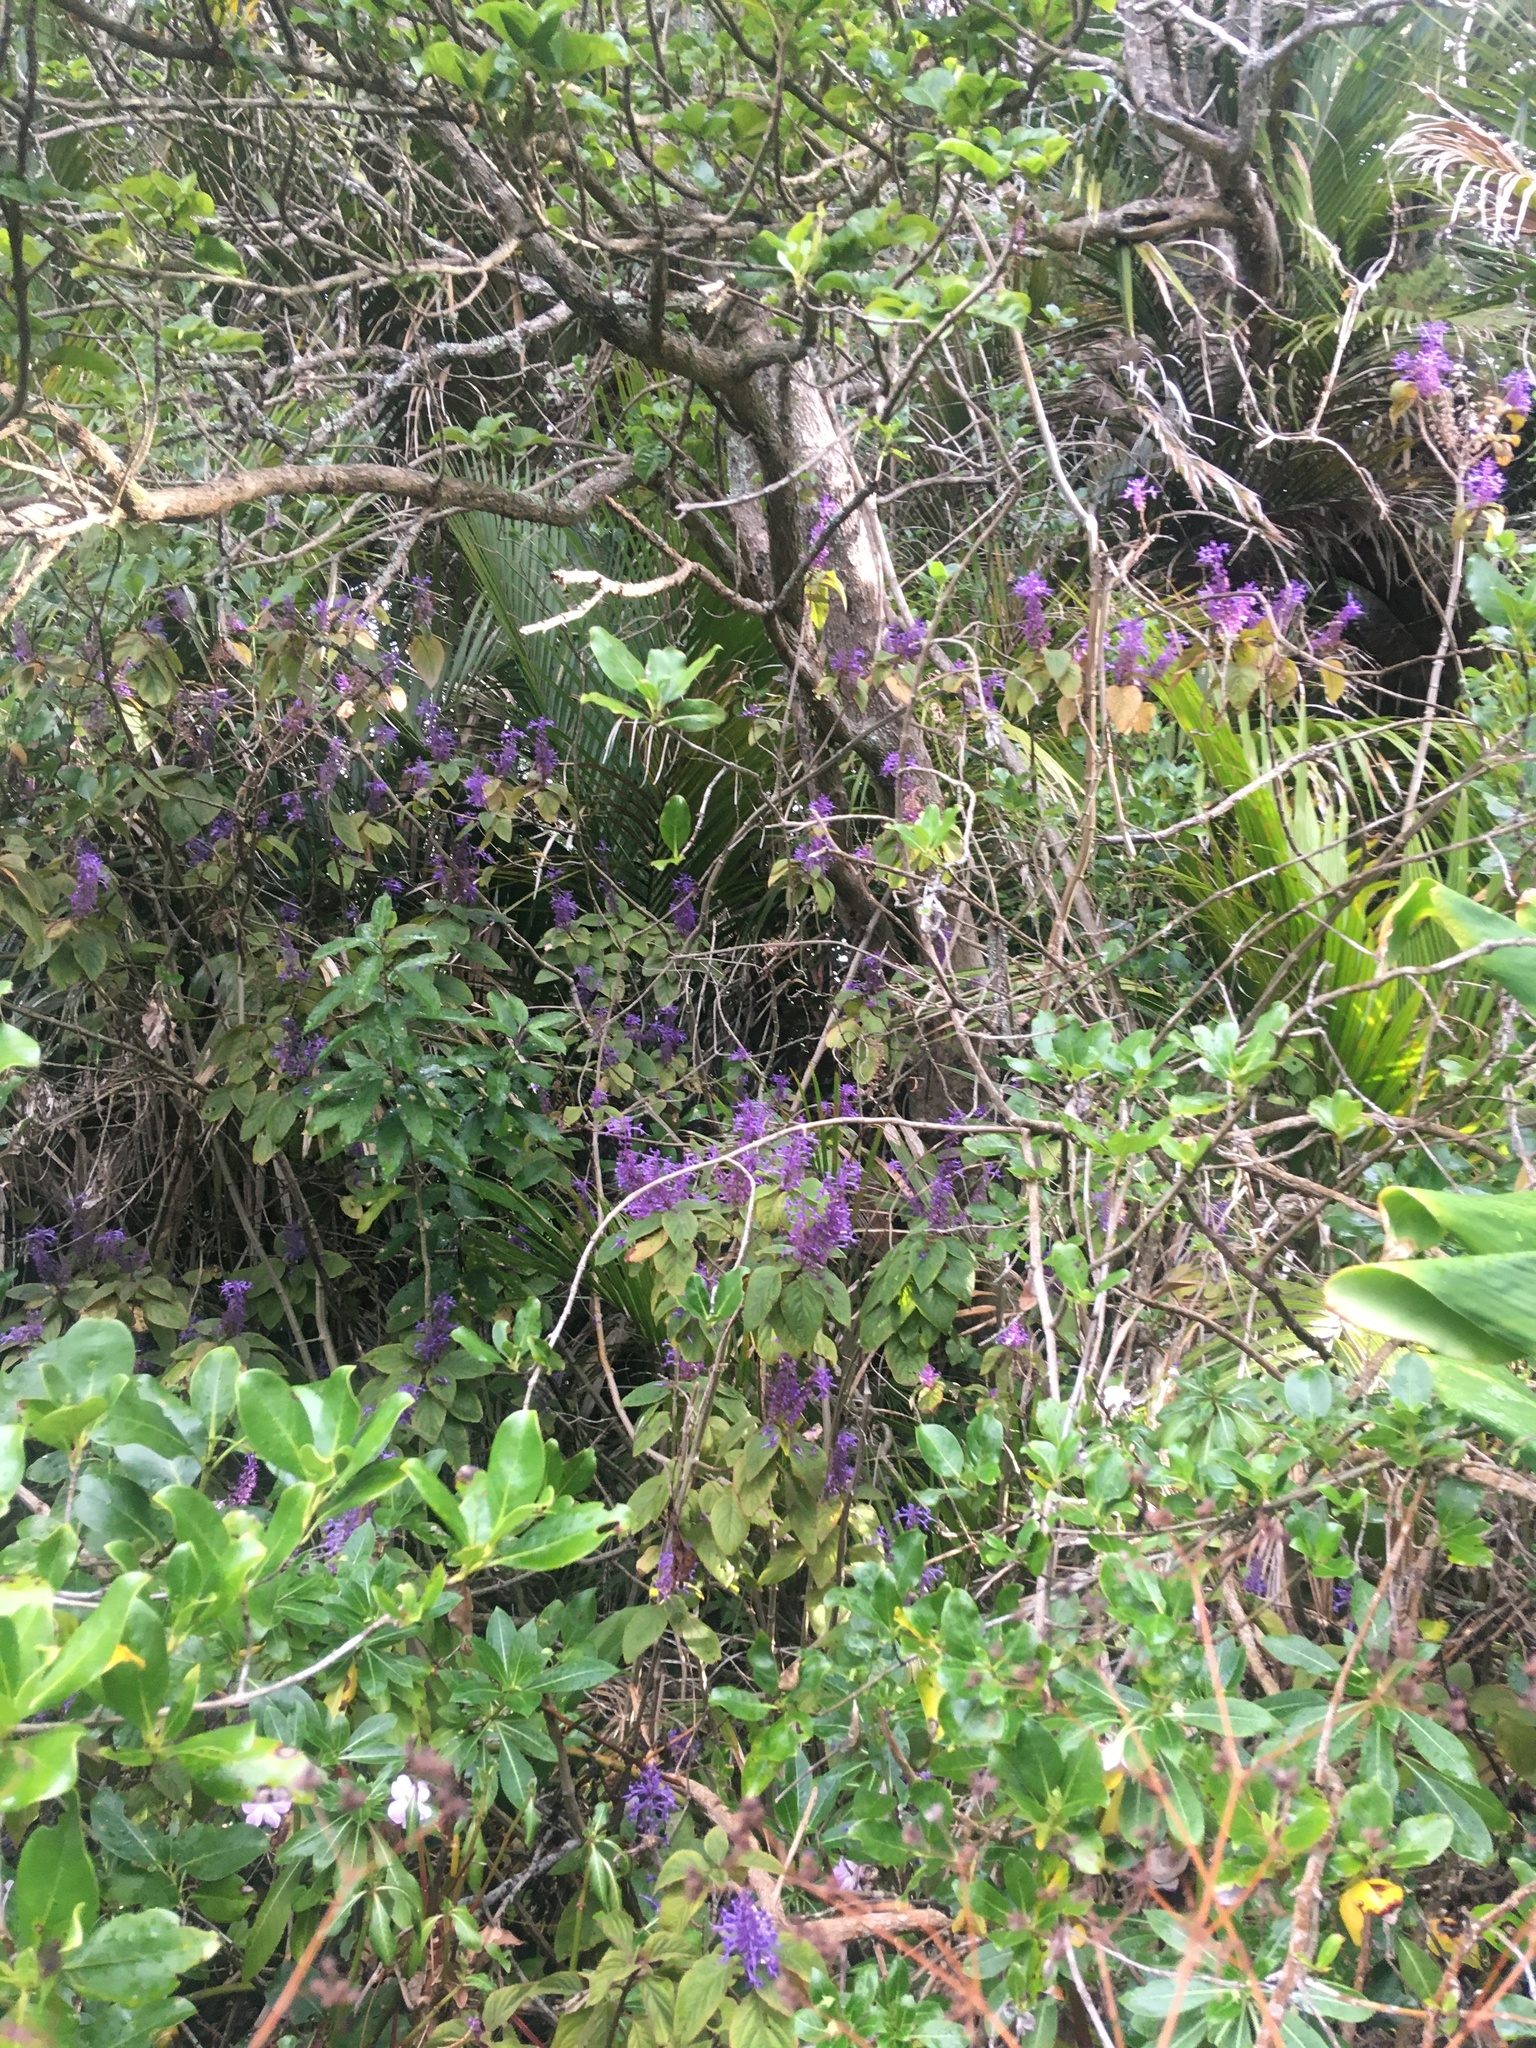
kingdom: Plantae
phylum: Tracheophyta
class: Magnoliopsida
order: Lamiales
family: Lamiaceae
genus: Plectranthus
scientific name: Plectranthus ecklonii
